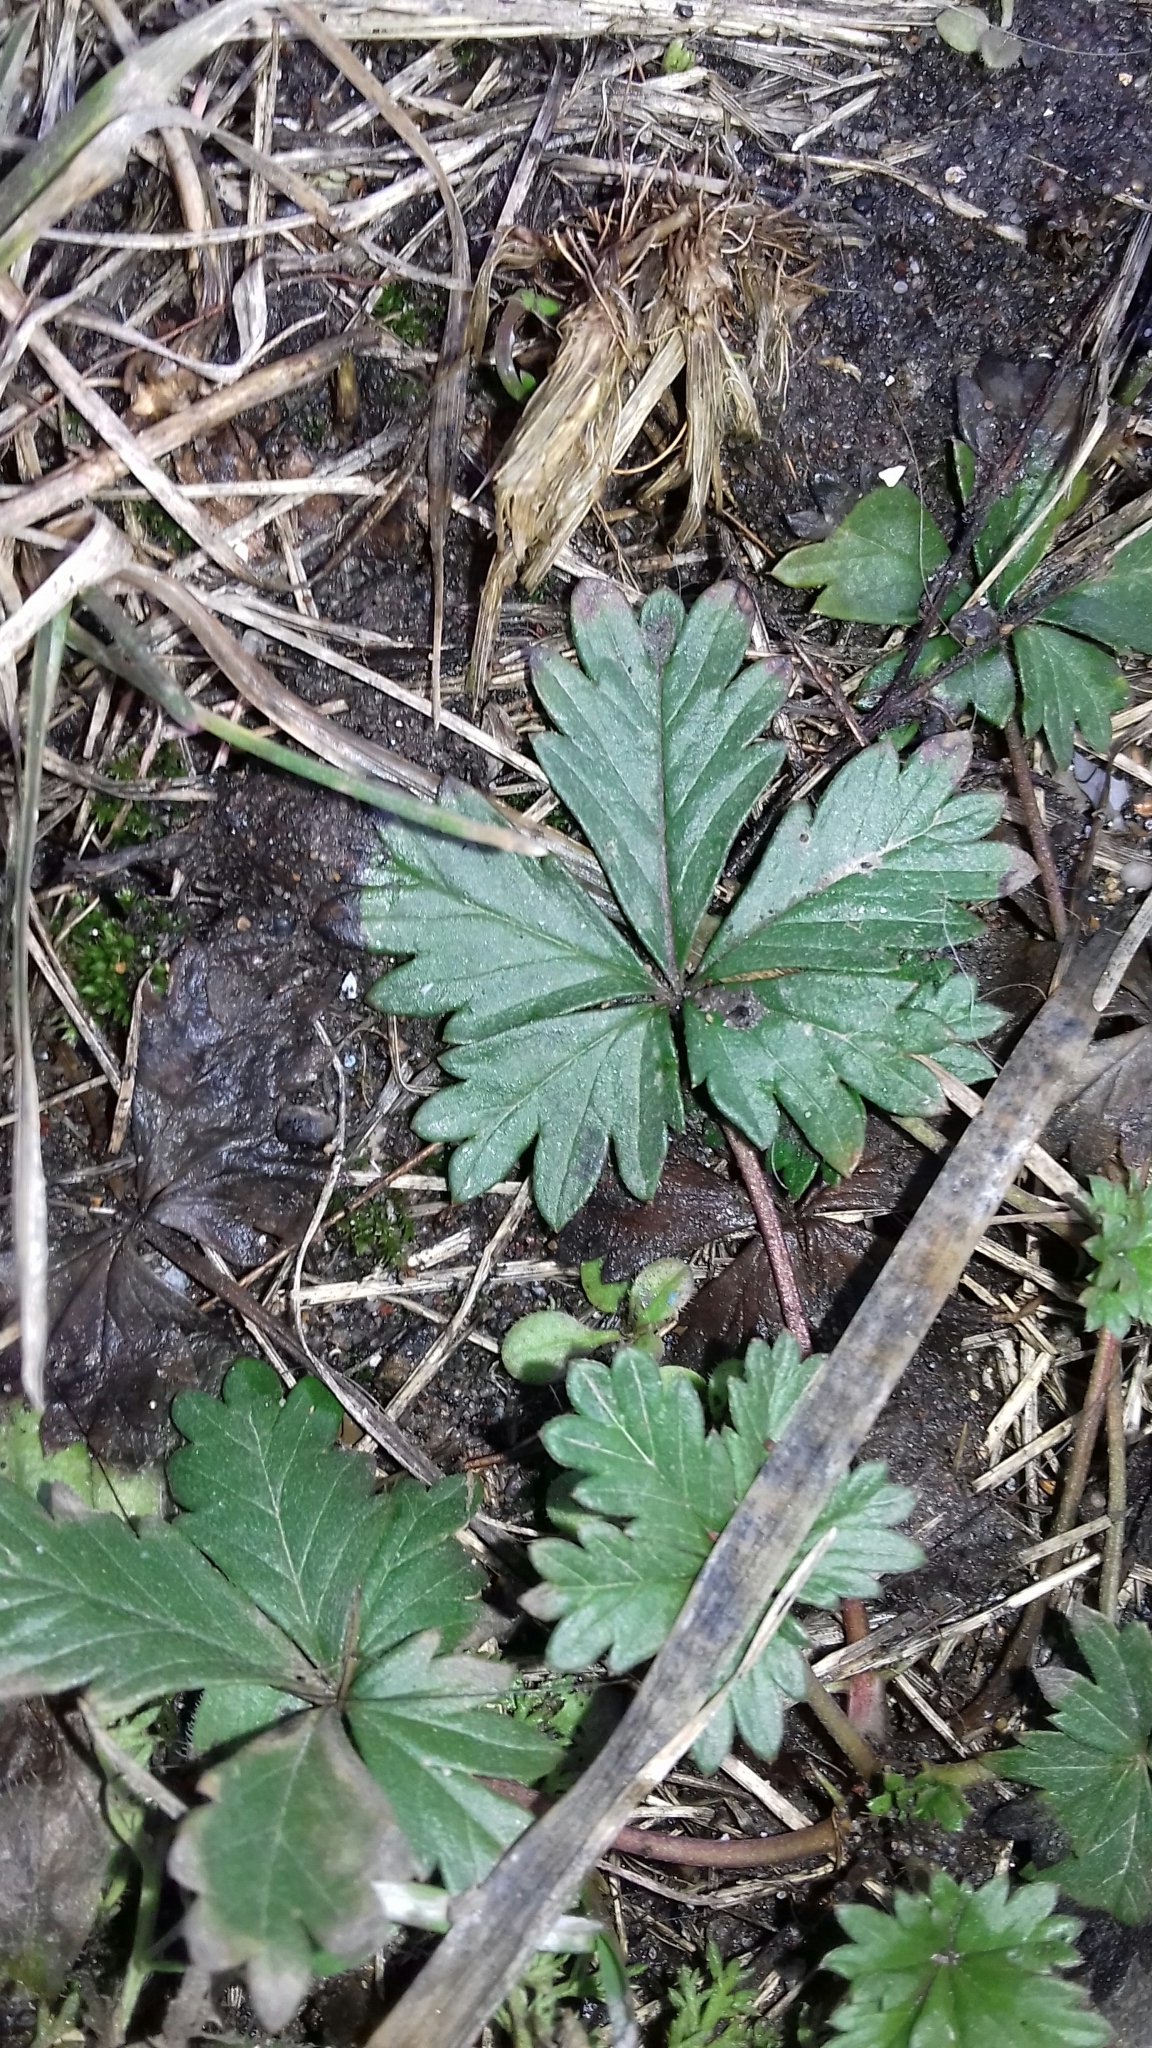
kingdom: Plantae
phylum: Tracheophyta
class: Magnoliopsida
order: Rosales
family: Rosaceae
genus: Potentilla
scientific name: Potentilla argentea
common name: Hoary cinquefoil
